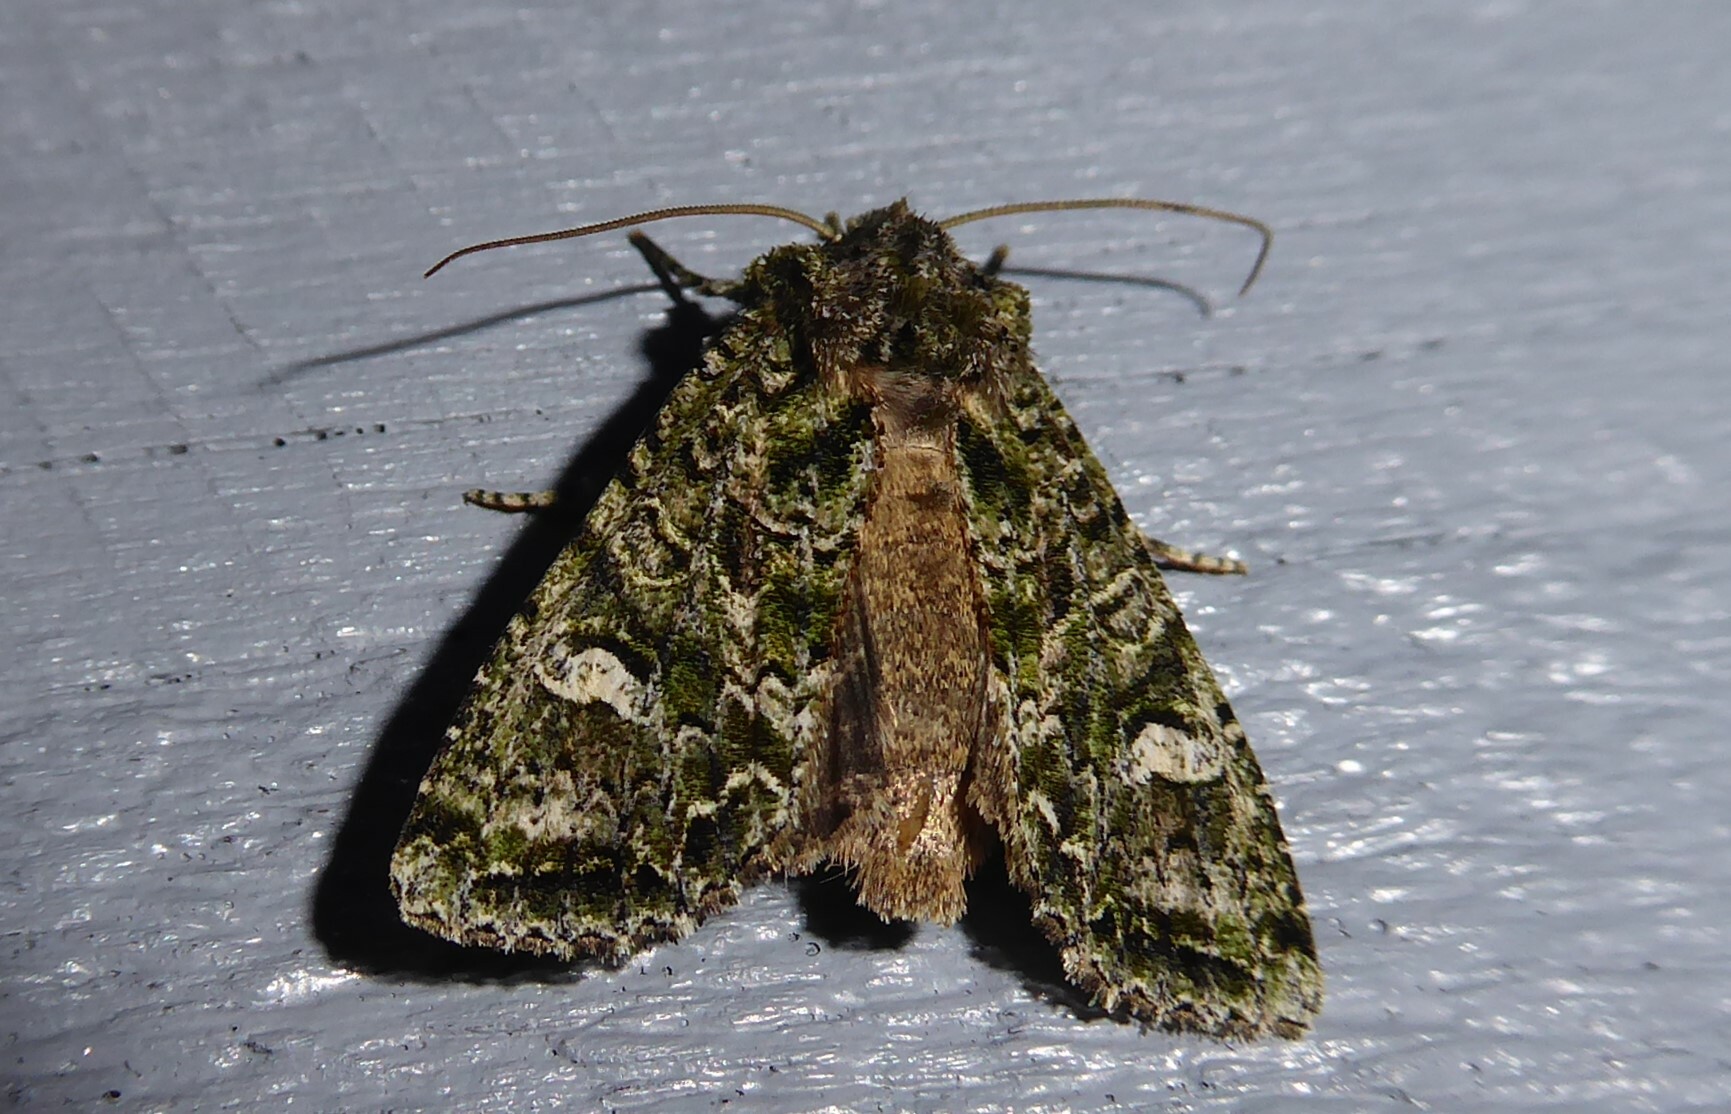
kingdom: Animalia
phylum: Arthropoda
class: Insecta
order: Lepidoptera
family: Noctuidae
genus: Ichneutica
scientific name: Ichneutica
